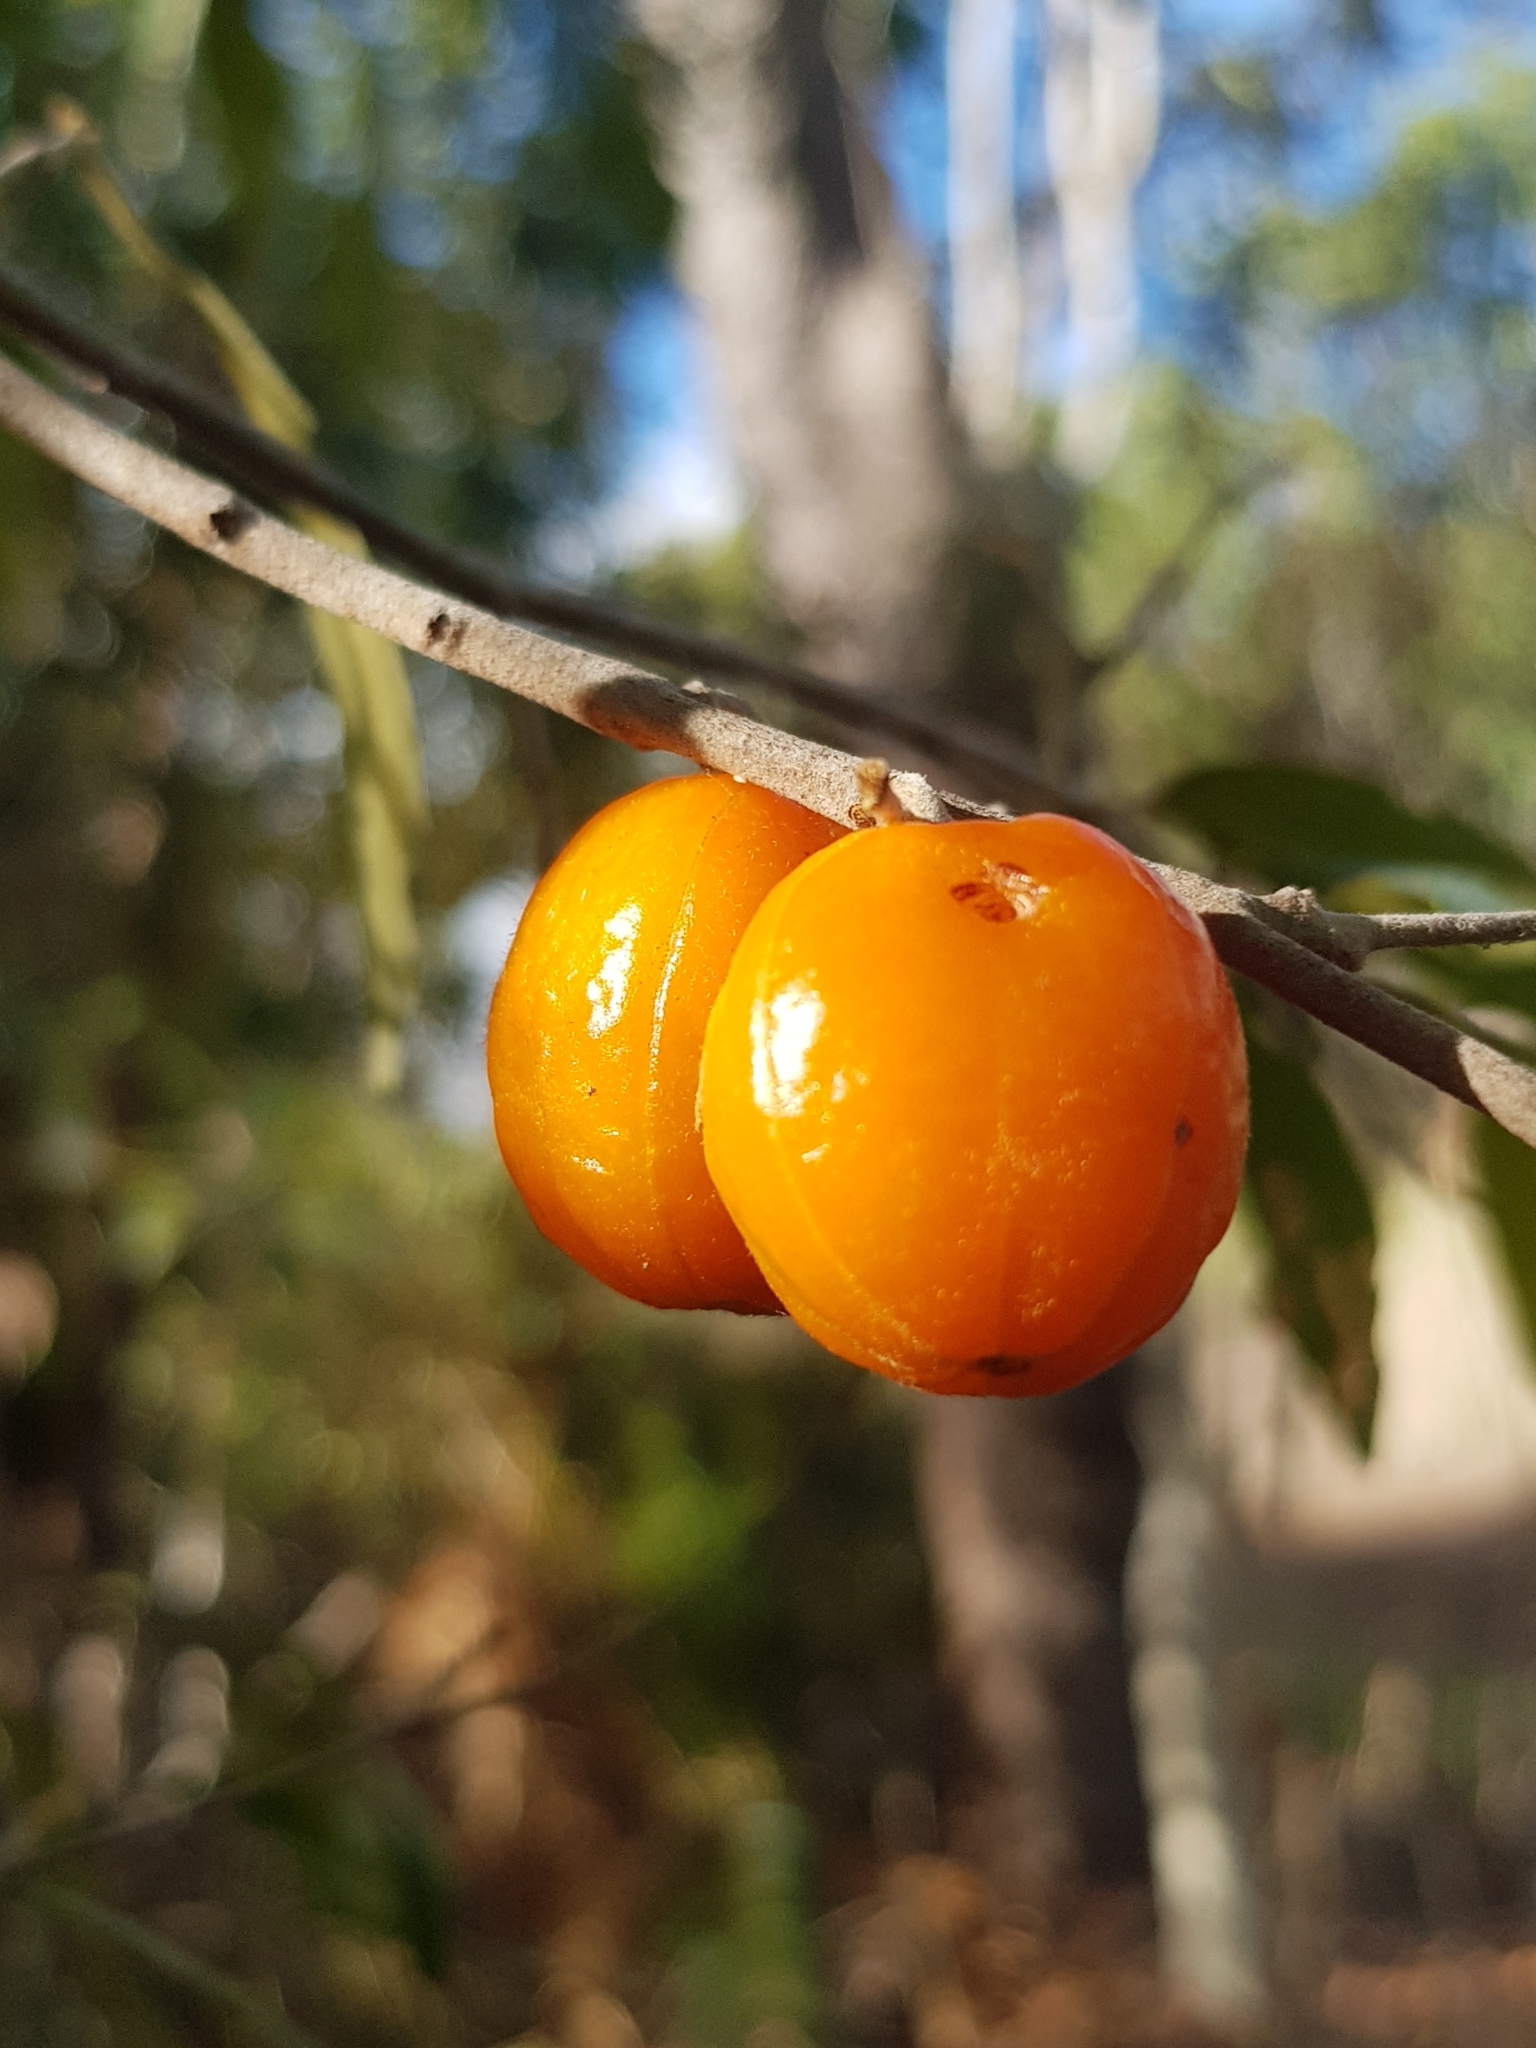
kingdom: Plantae
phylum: Tracheophyta
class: Magnoliopsida
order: Malpighiales
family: Picrodendraceae
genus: Petalostigma
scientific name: Petalostigma triloculare
